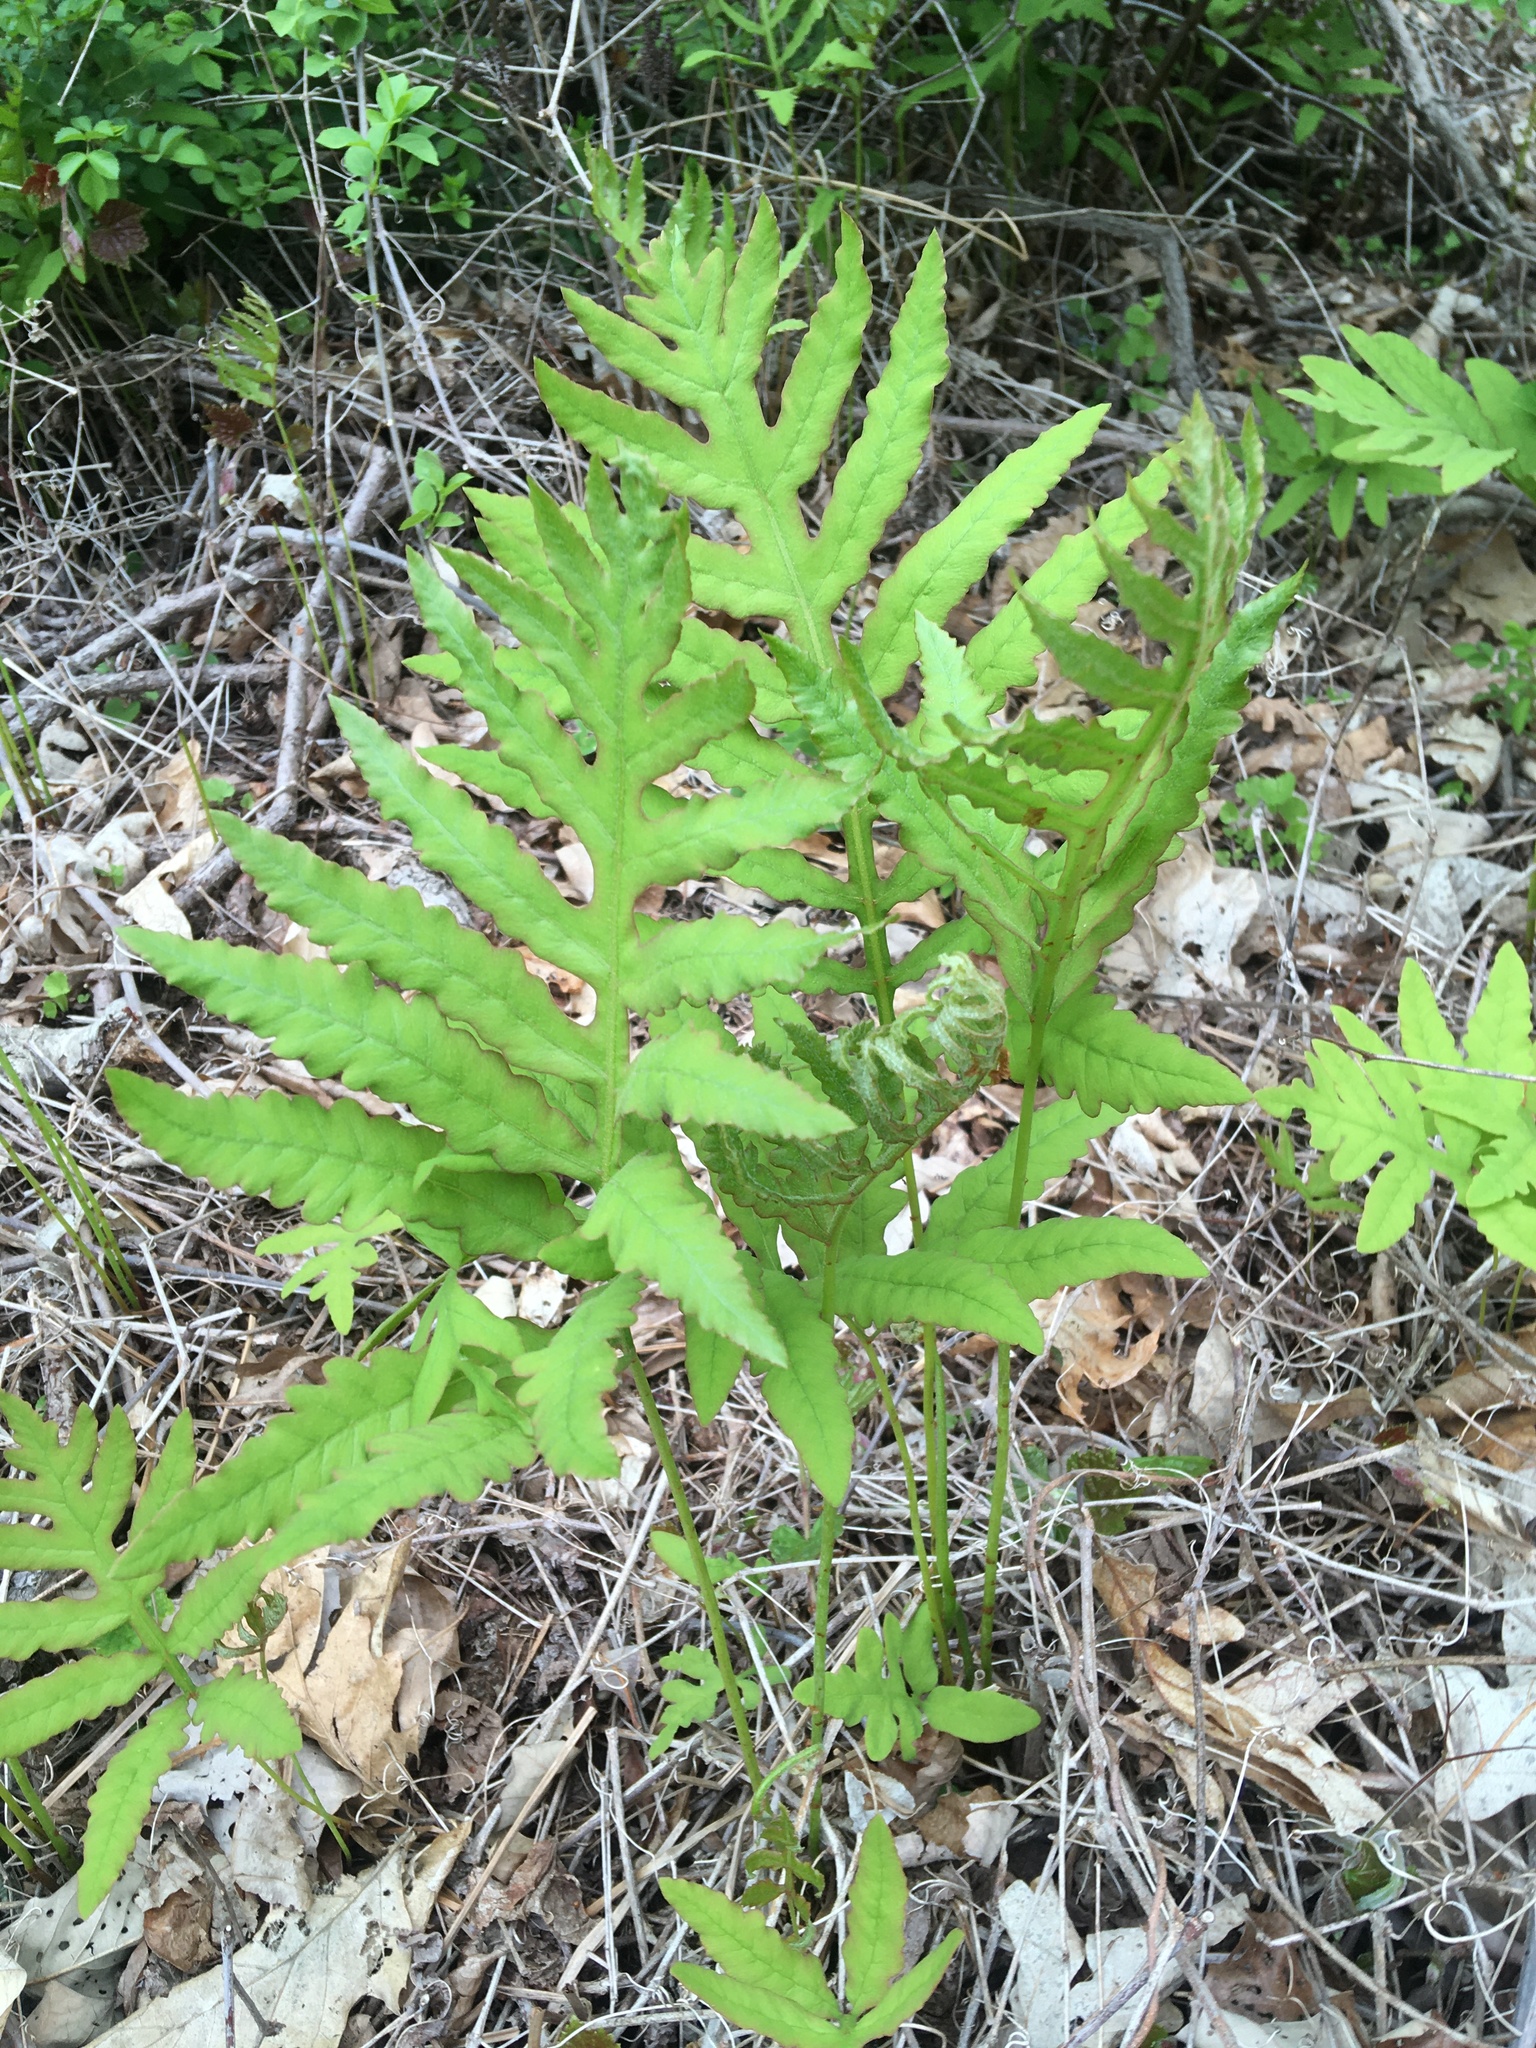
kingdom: Plantae
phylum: Tracheophyta
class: Polypodiopsida
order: Polypodiales
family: Onocleaceae
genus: Onoclea
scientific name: Onoclea sensibilis
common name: Sensitive fern
